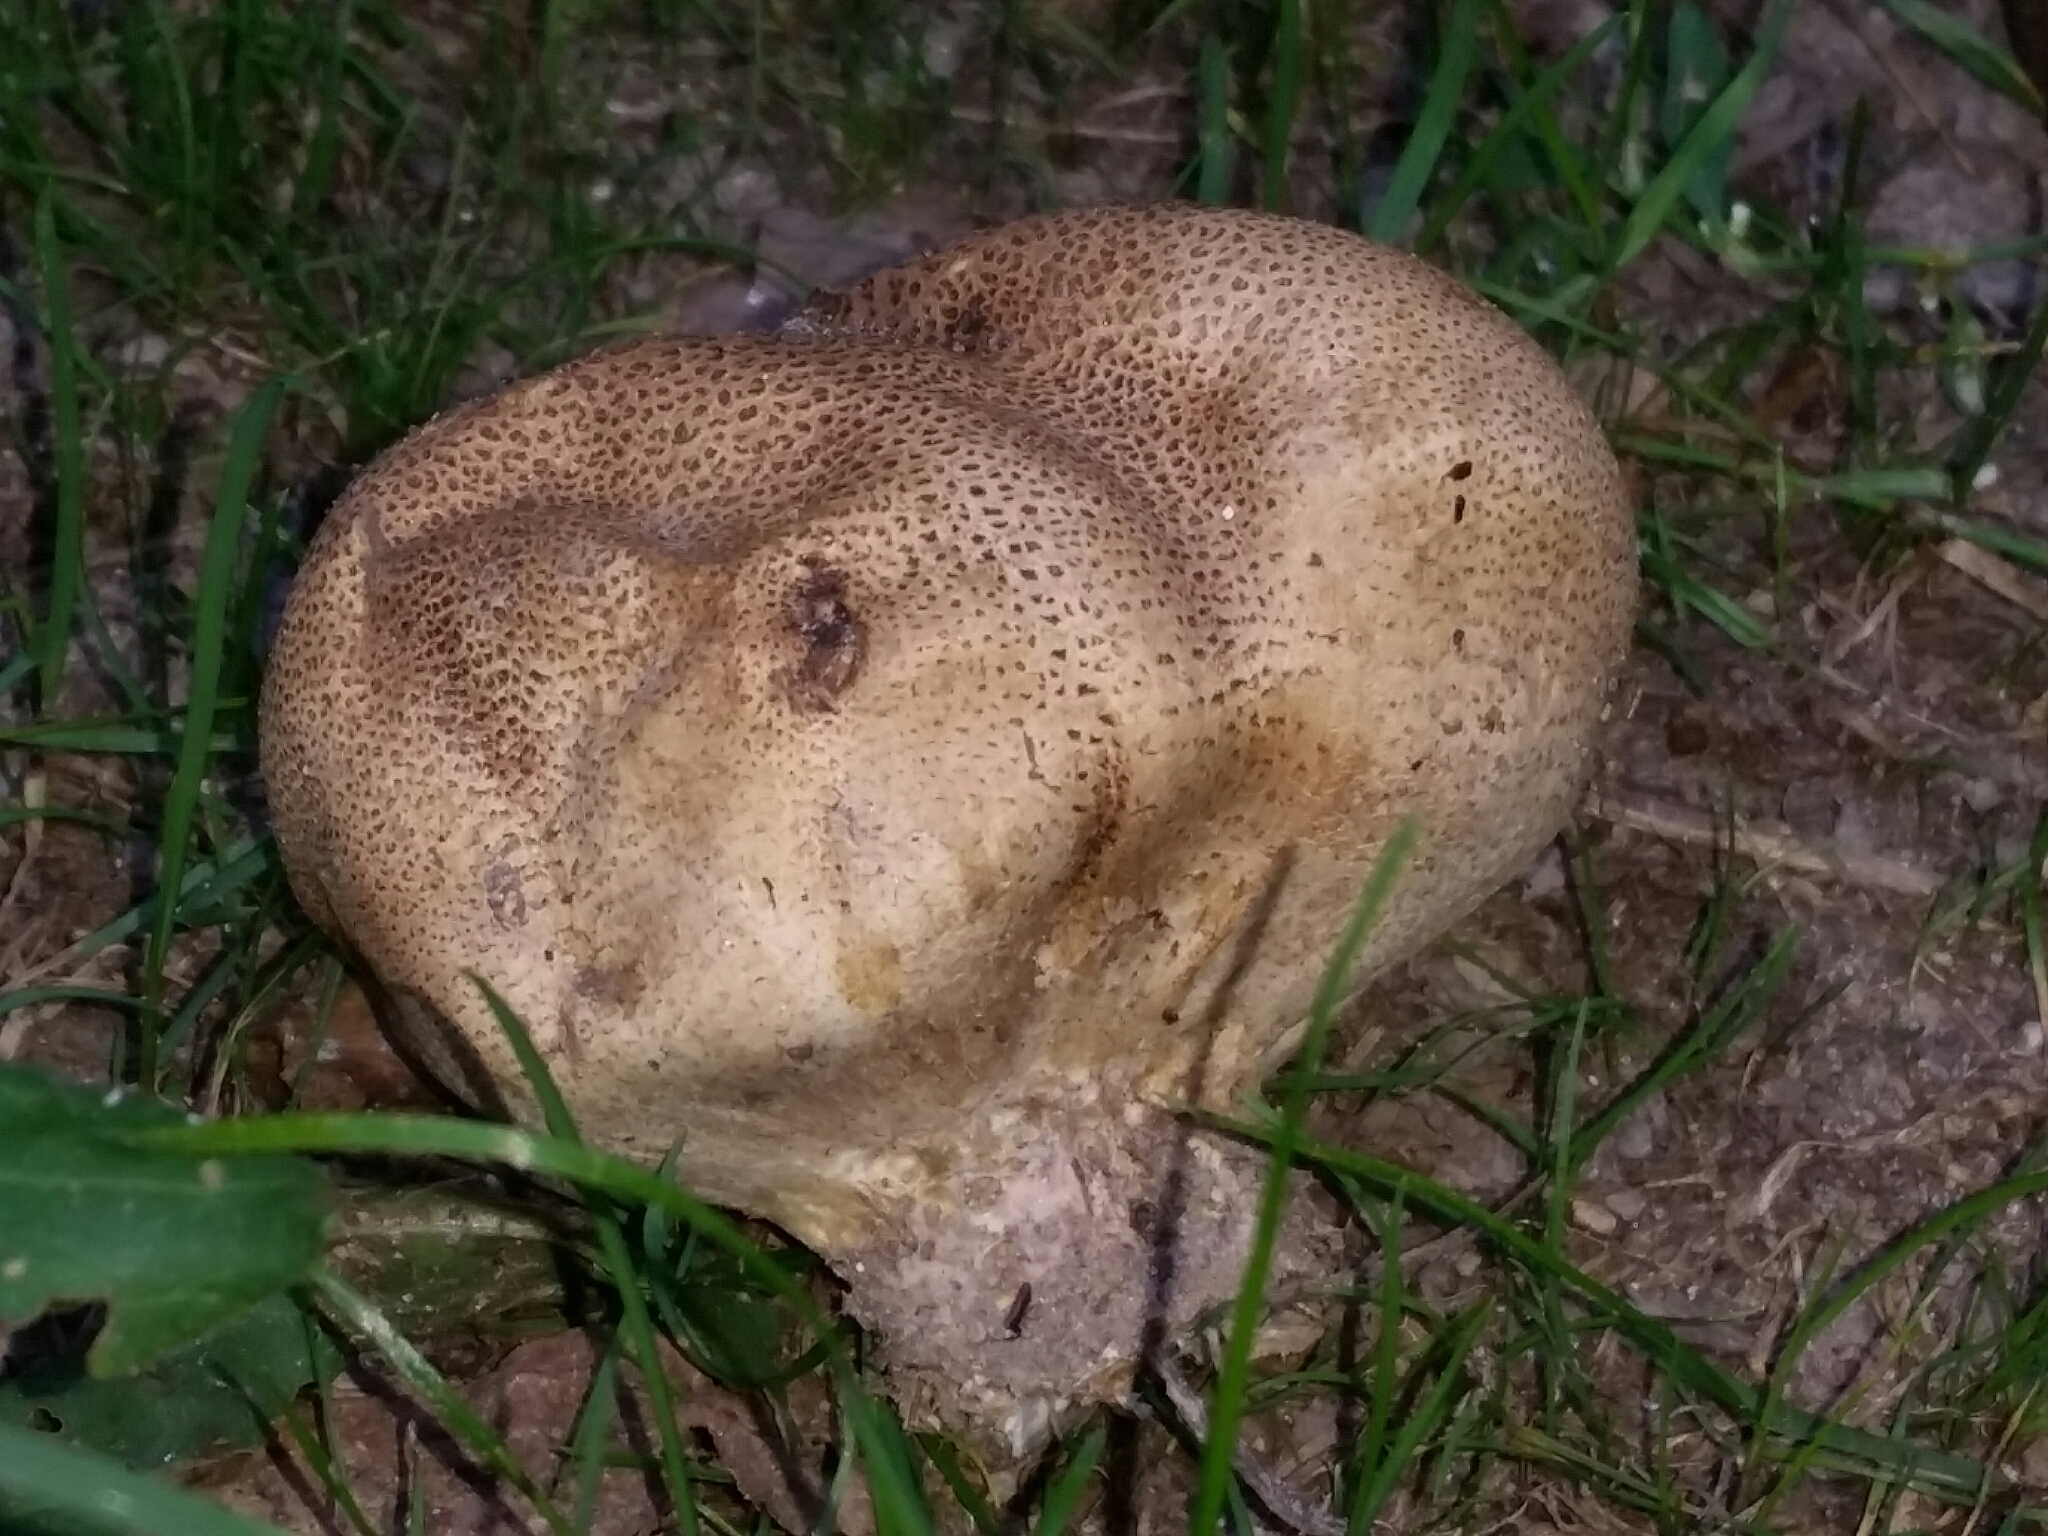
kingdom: Fungi
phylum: Basidiomycota
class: Agaricomycetes
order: Boletales
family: Sclerodermataceae
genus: Scleroderma
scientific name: Scleroderma citrinum
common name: Common earthball
